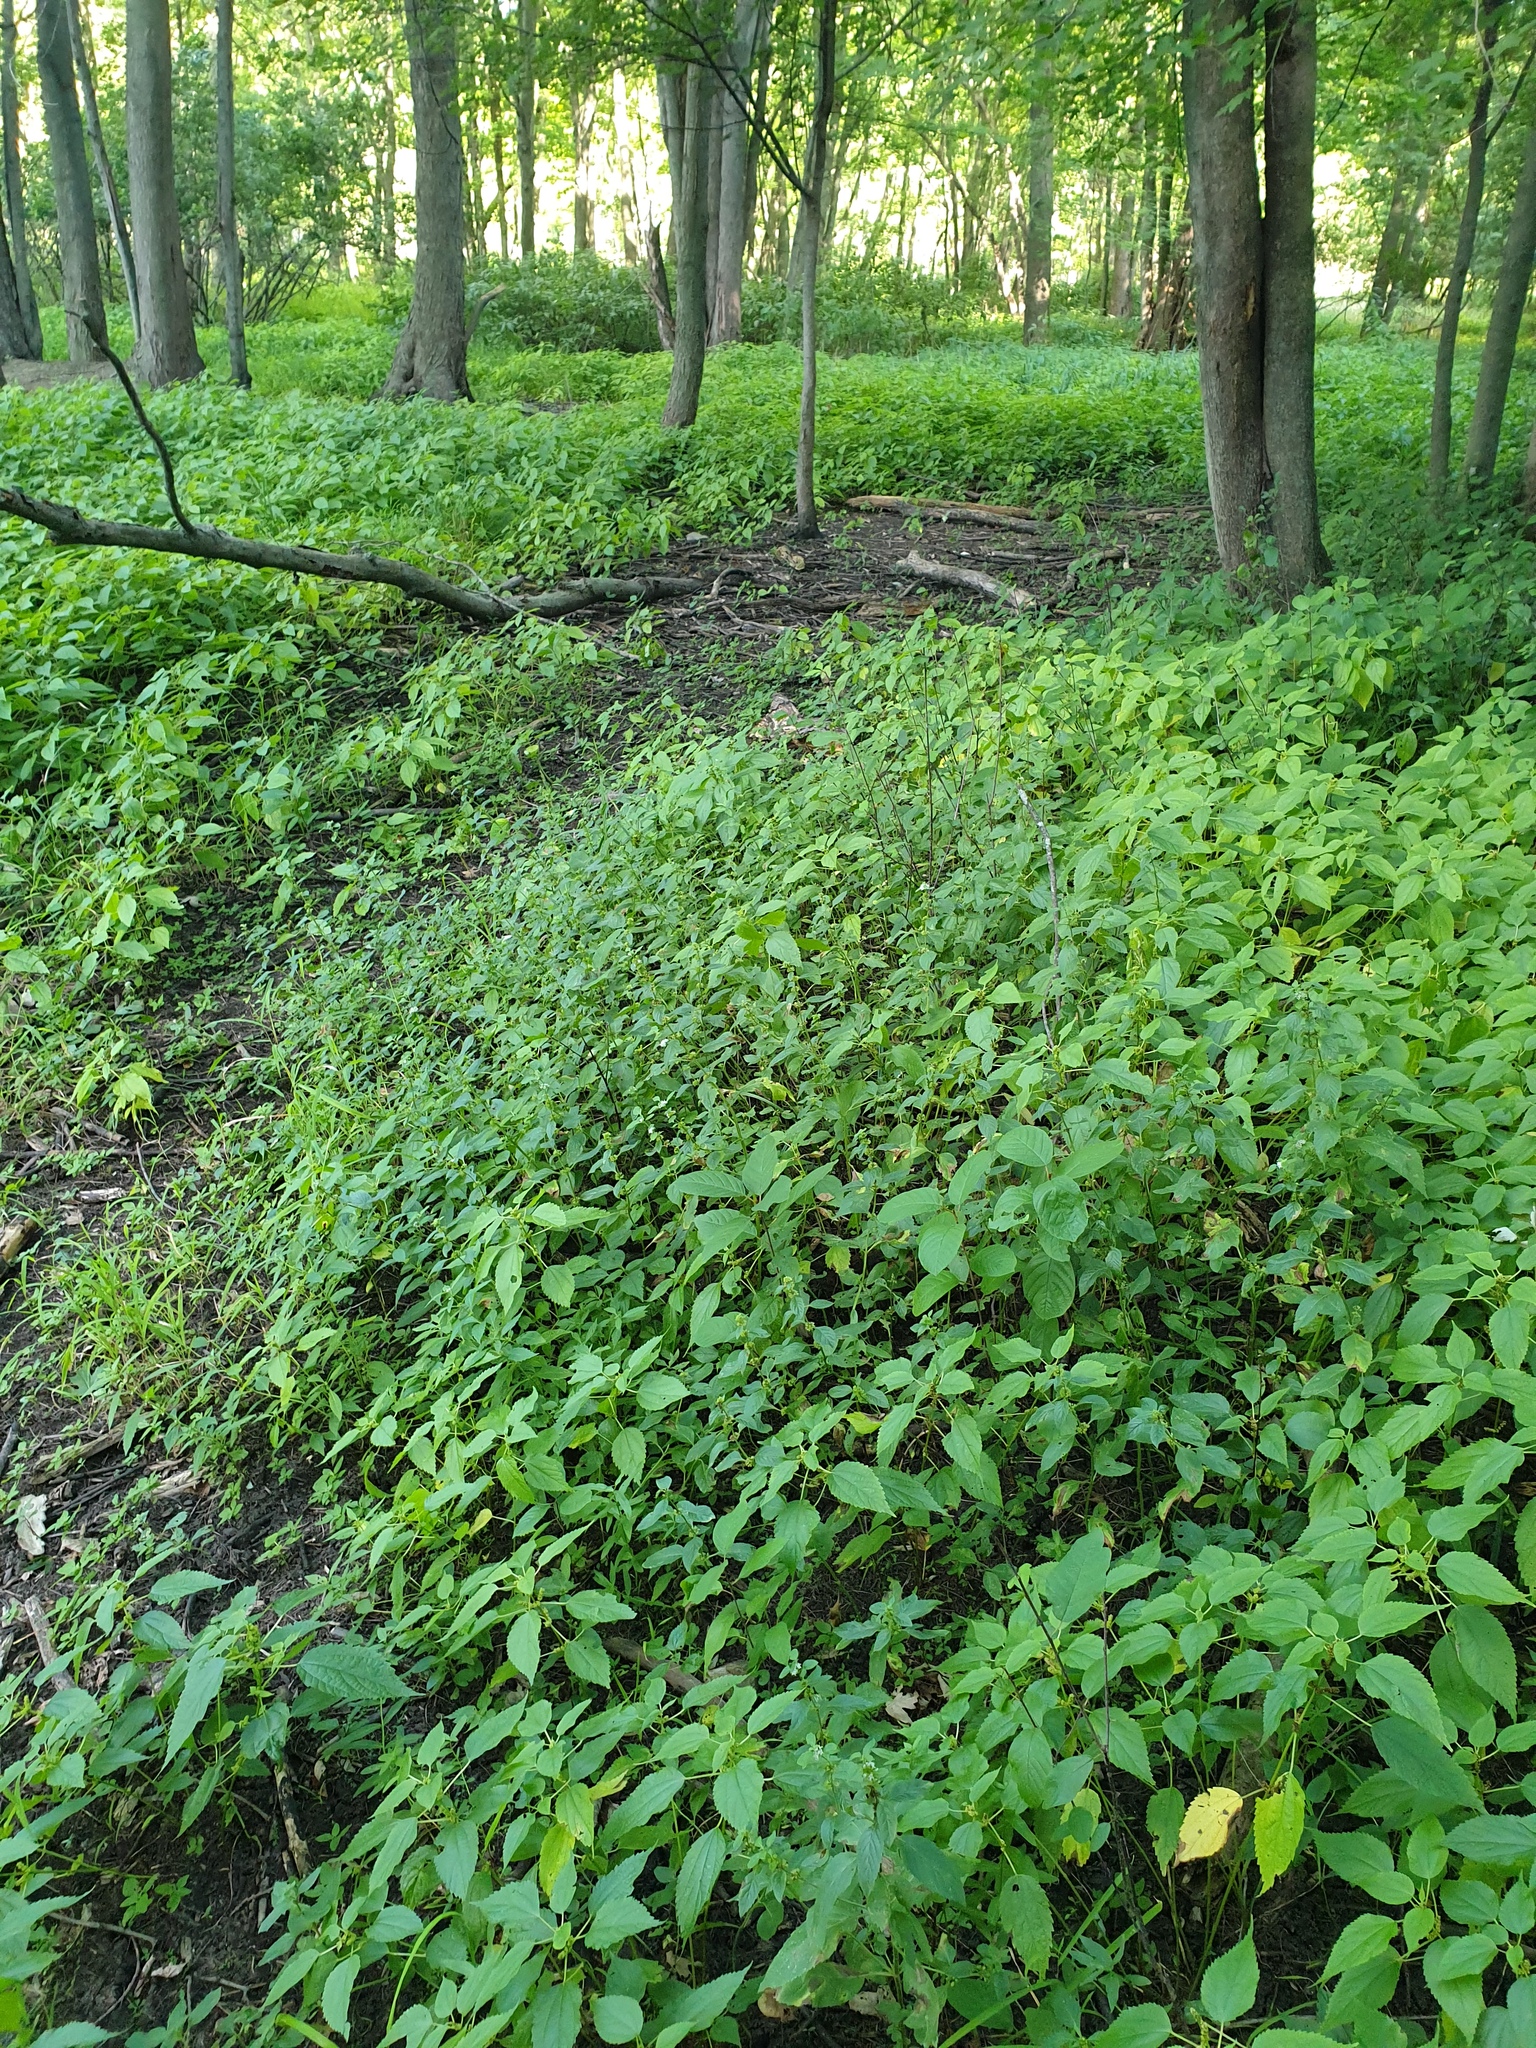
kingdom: Plantae
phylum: Tracheophyta
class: Liliopsida
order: Poales
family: Cyperaceae
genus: Carex
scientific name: Carex lupulina
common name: Hop sedge
